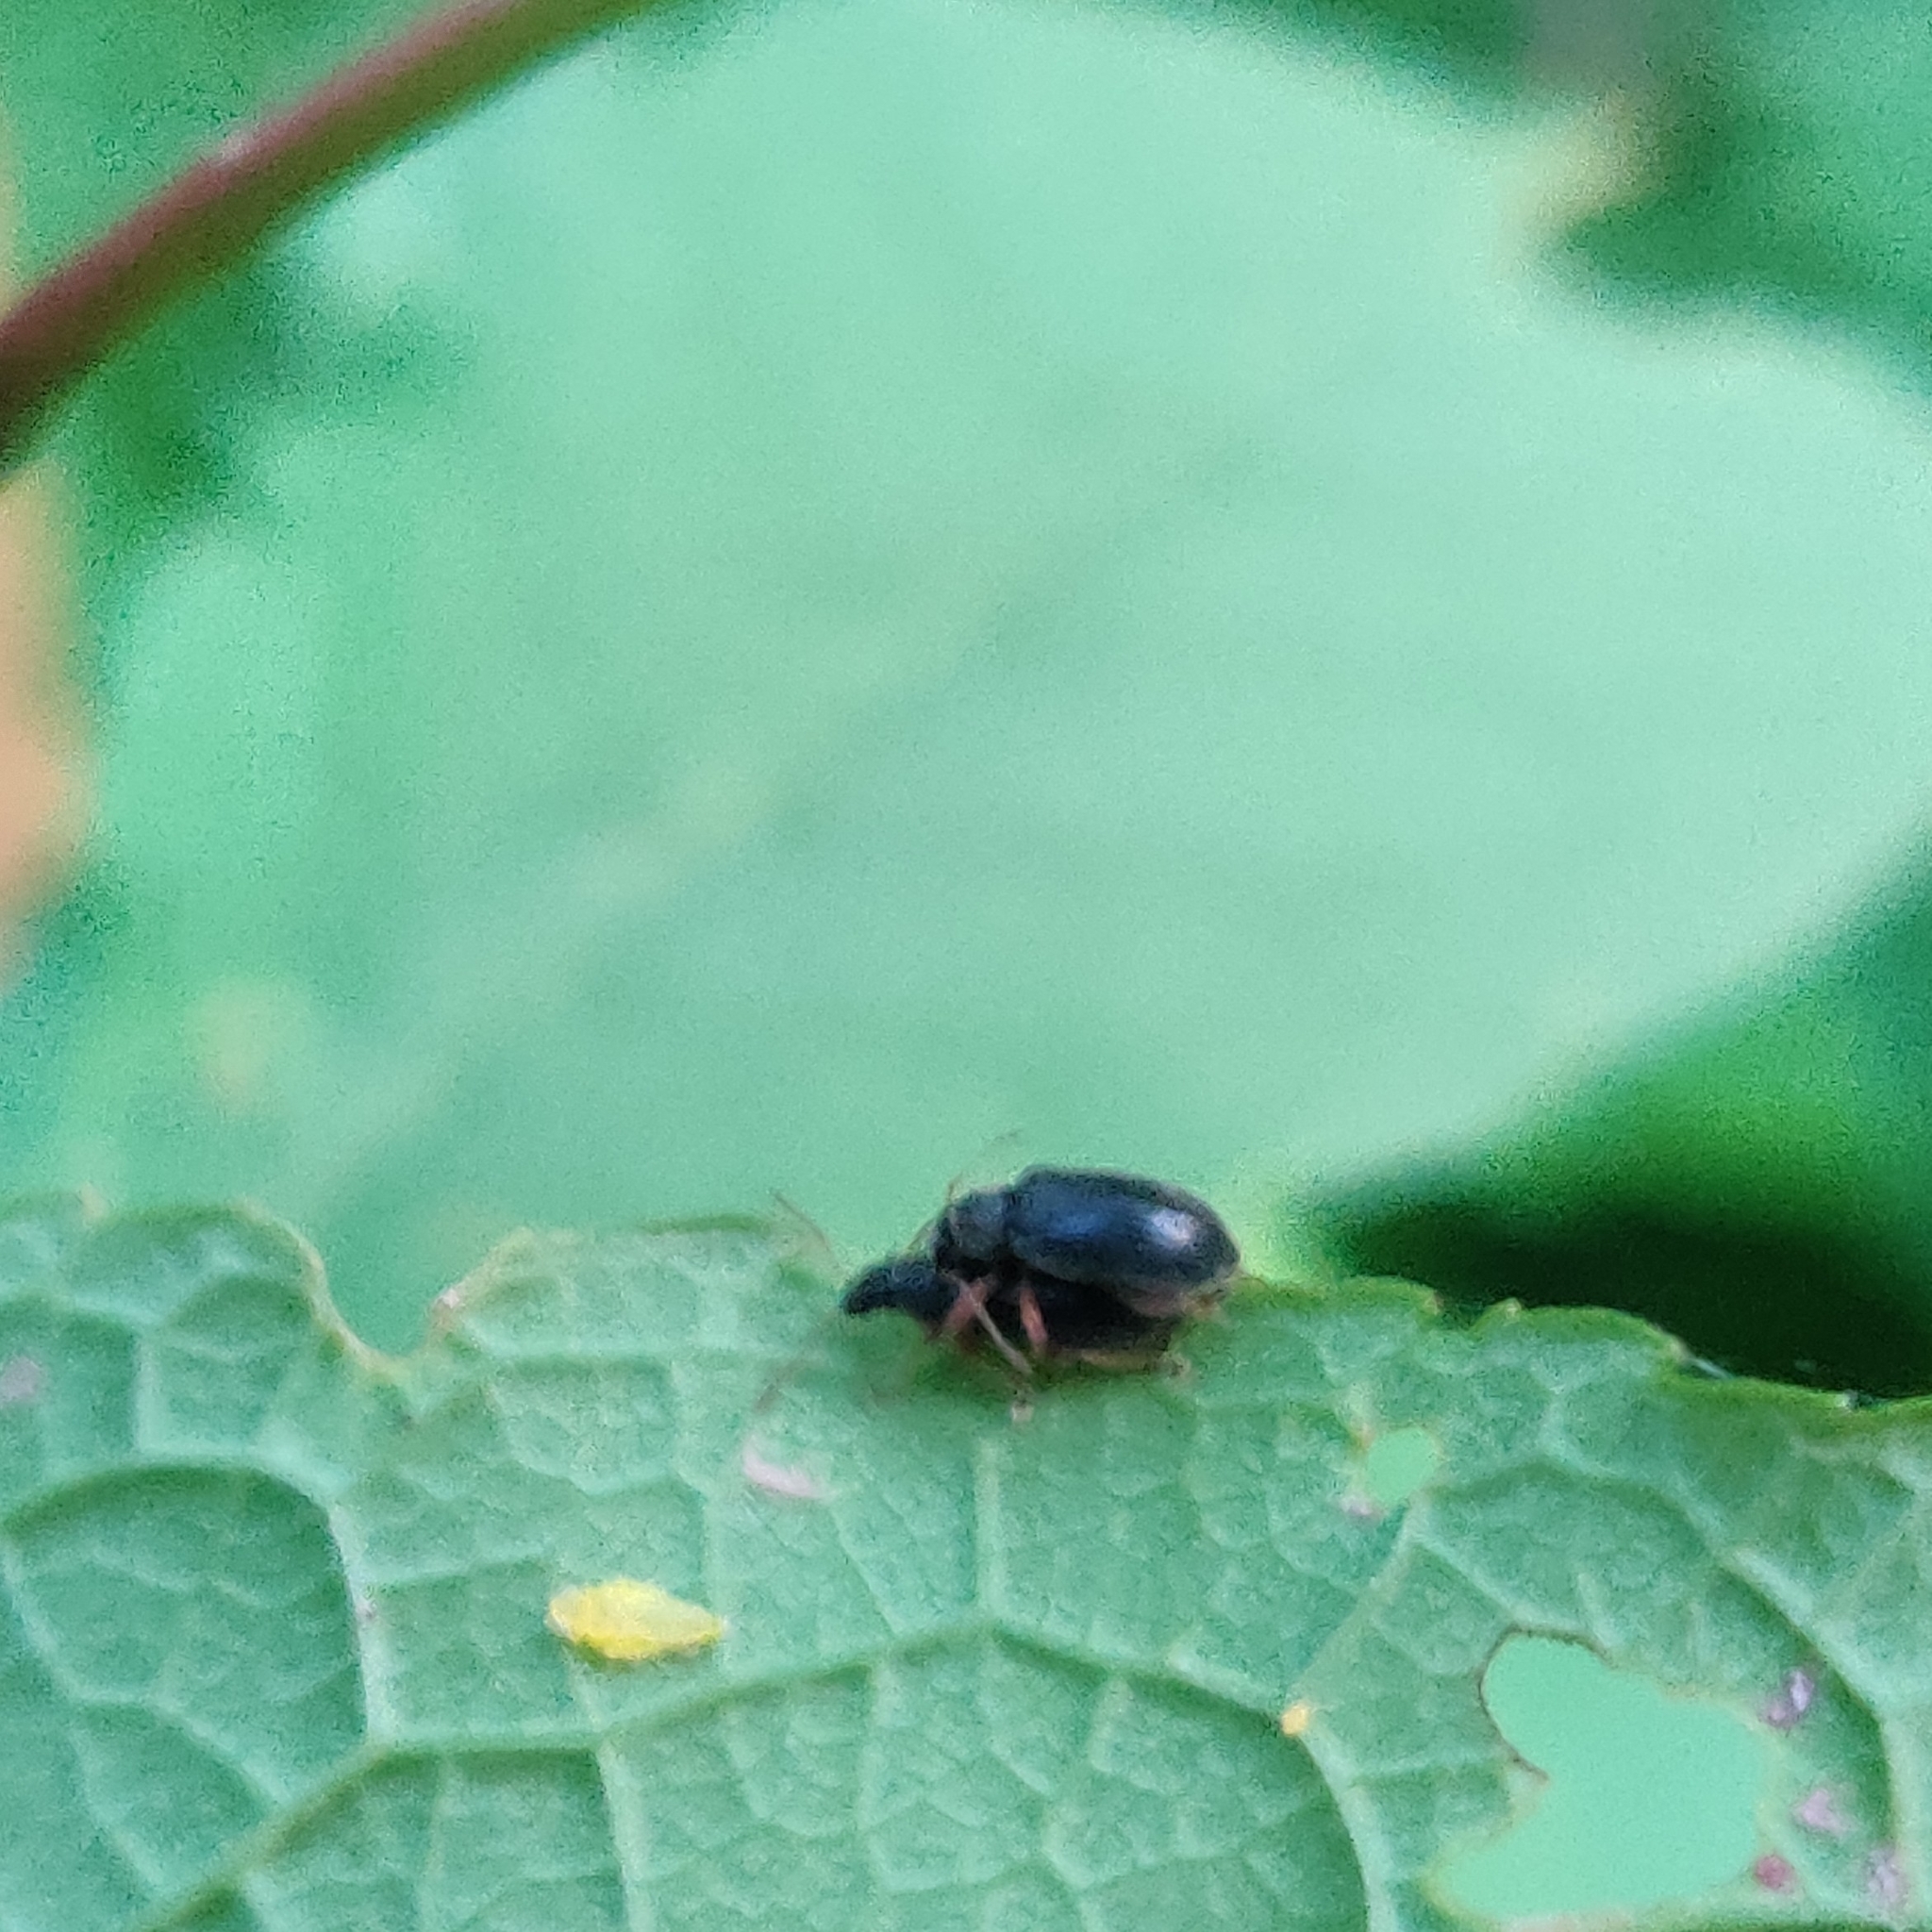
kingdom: Animalia
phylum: Arthropoda
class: Insecta
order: Coleoptera
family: Curculionidae
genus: Phyllobius
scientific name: Phyllobius oblongus
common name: Brown leaf weevil
